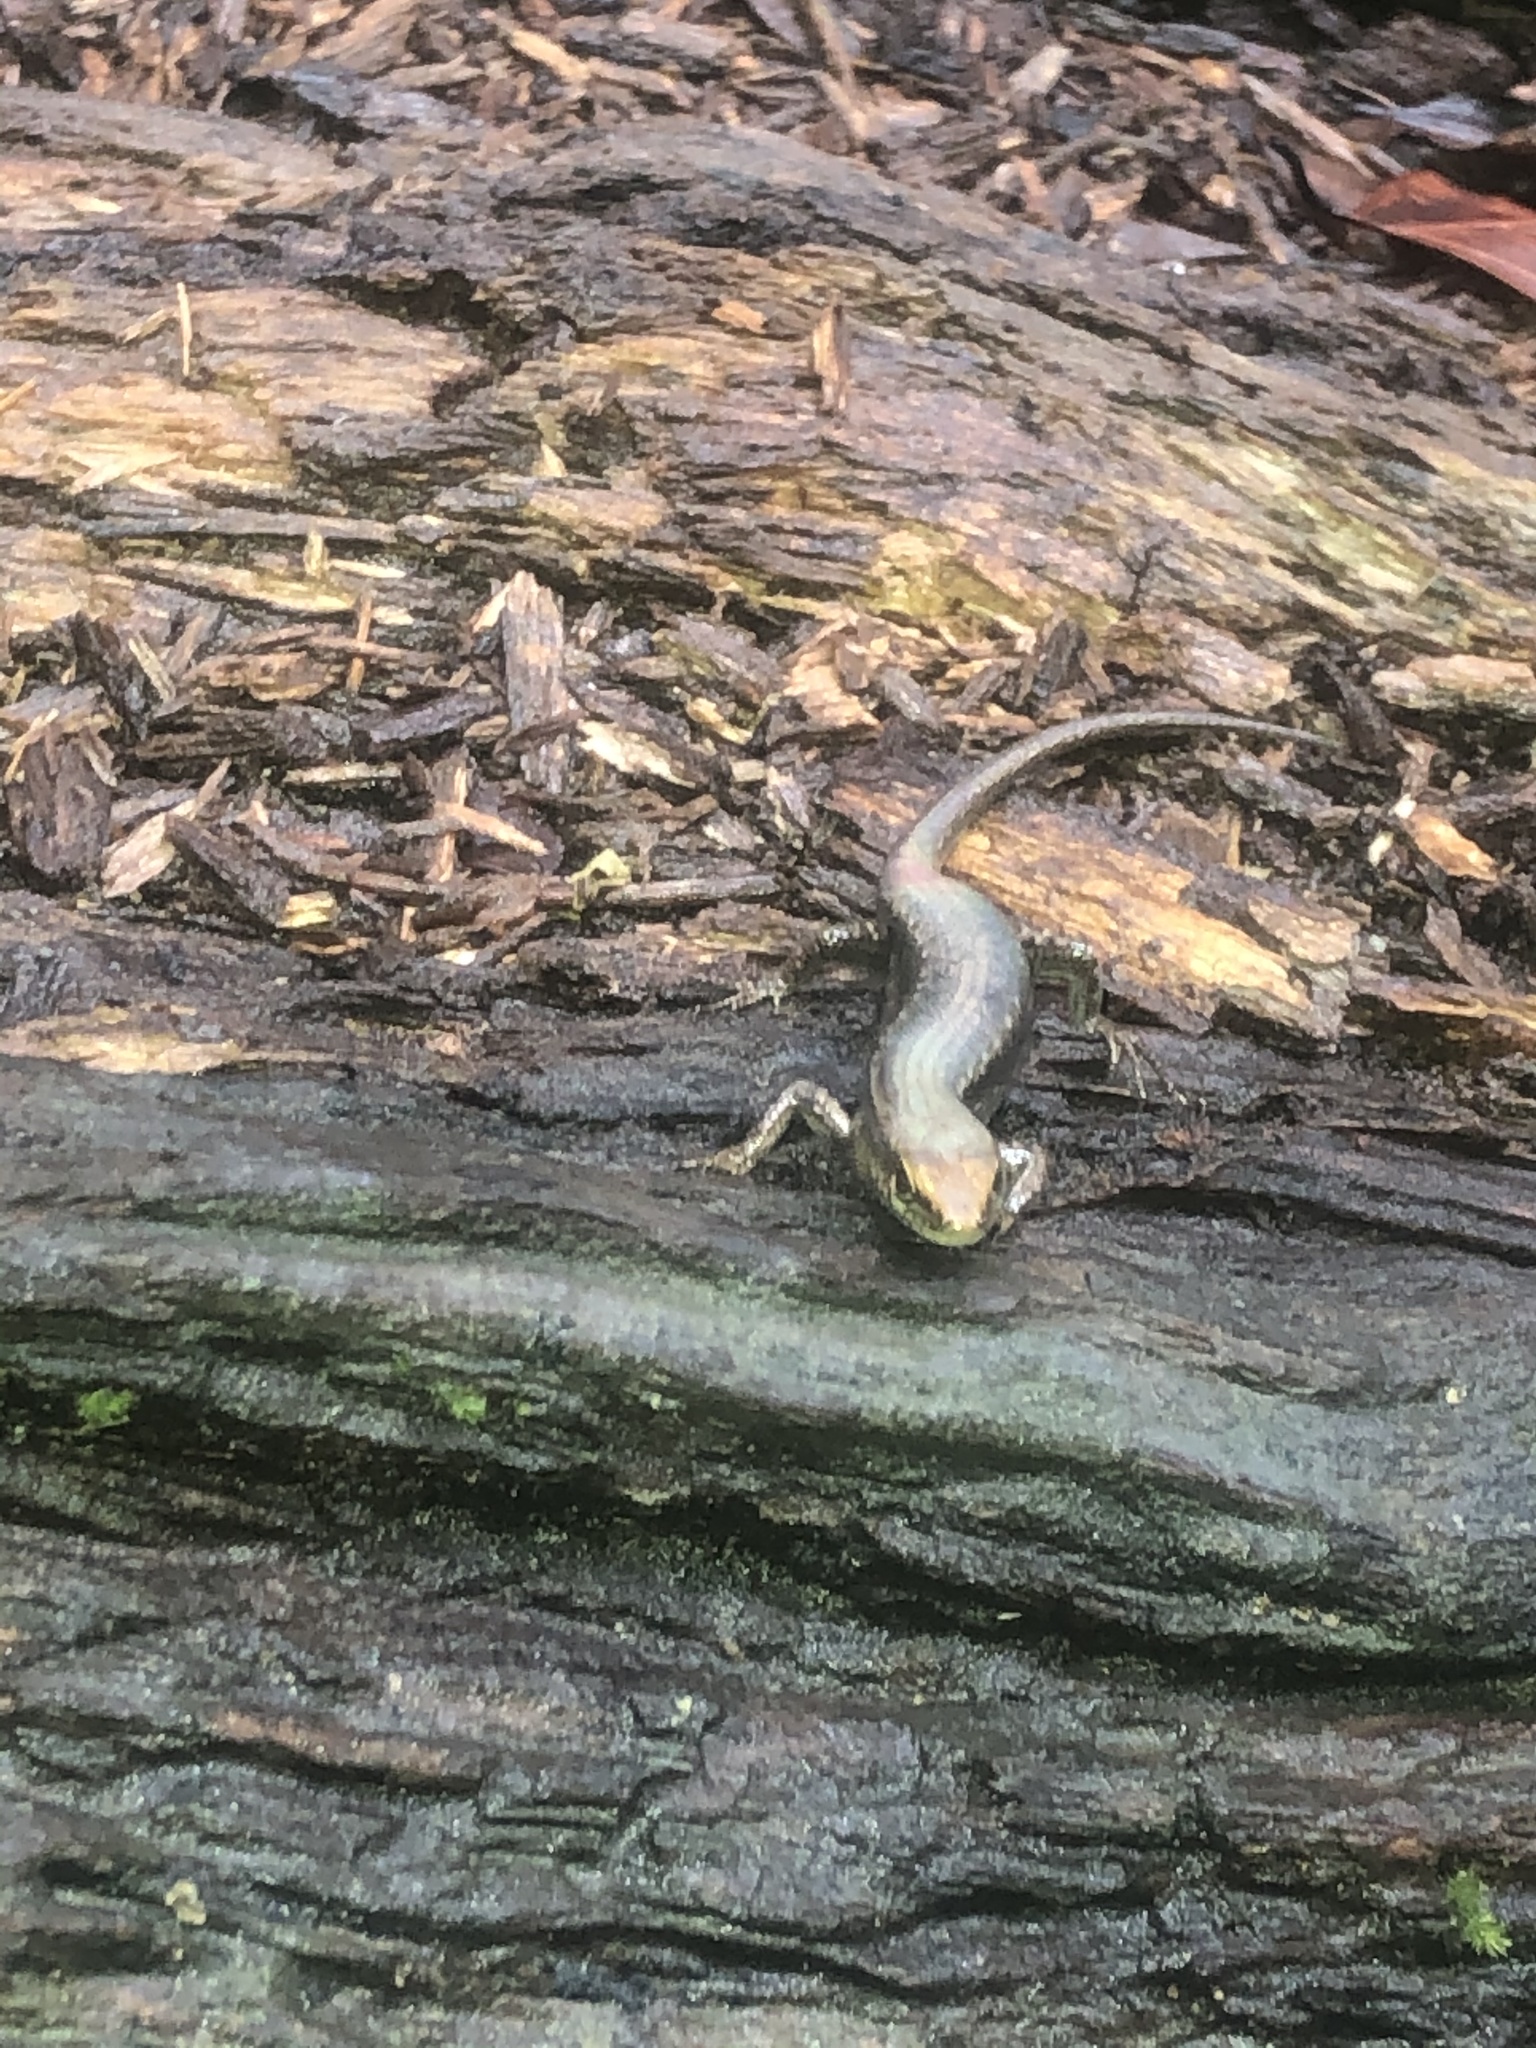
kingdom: Animalia
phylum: Chordata
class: Squamata
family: Scincidae
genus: Carlia
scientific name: Carlia rhomboidalis
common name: Blue-throated rainbow-skink
